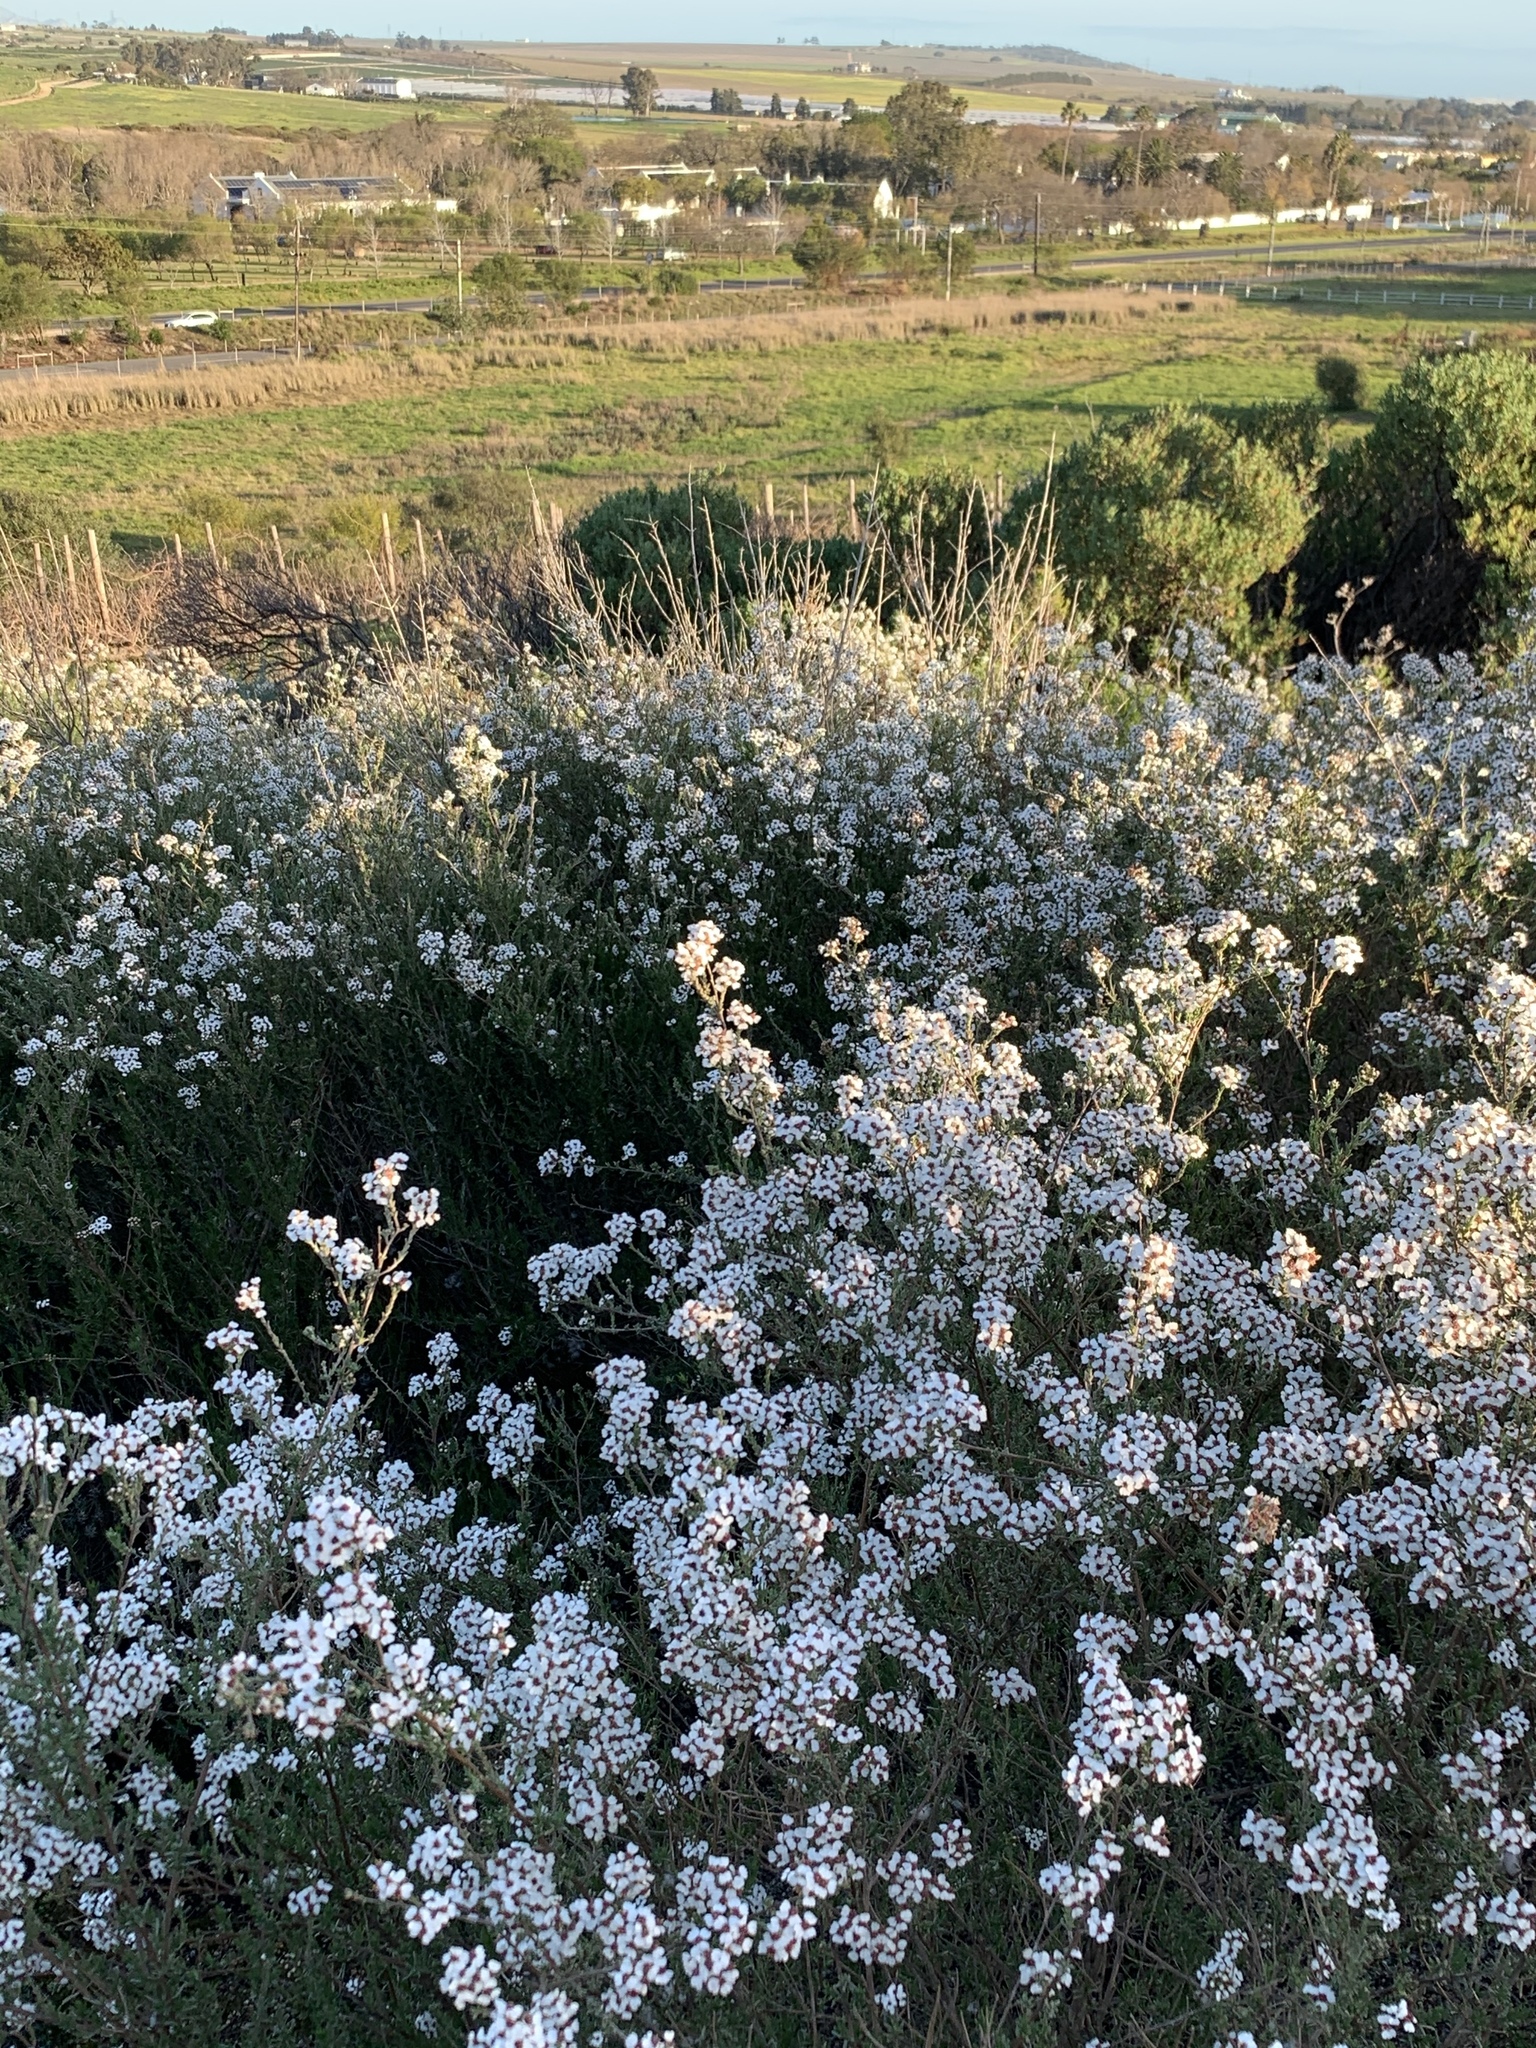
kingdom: Plantae
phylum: Tracheophyta
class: Magnoliopsida
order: Asterales
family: Asteraceae
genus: Eriocephalus
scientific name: Eriocephalus africanus
